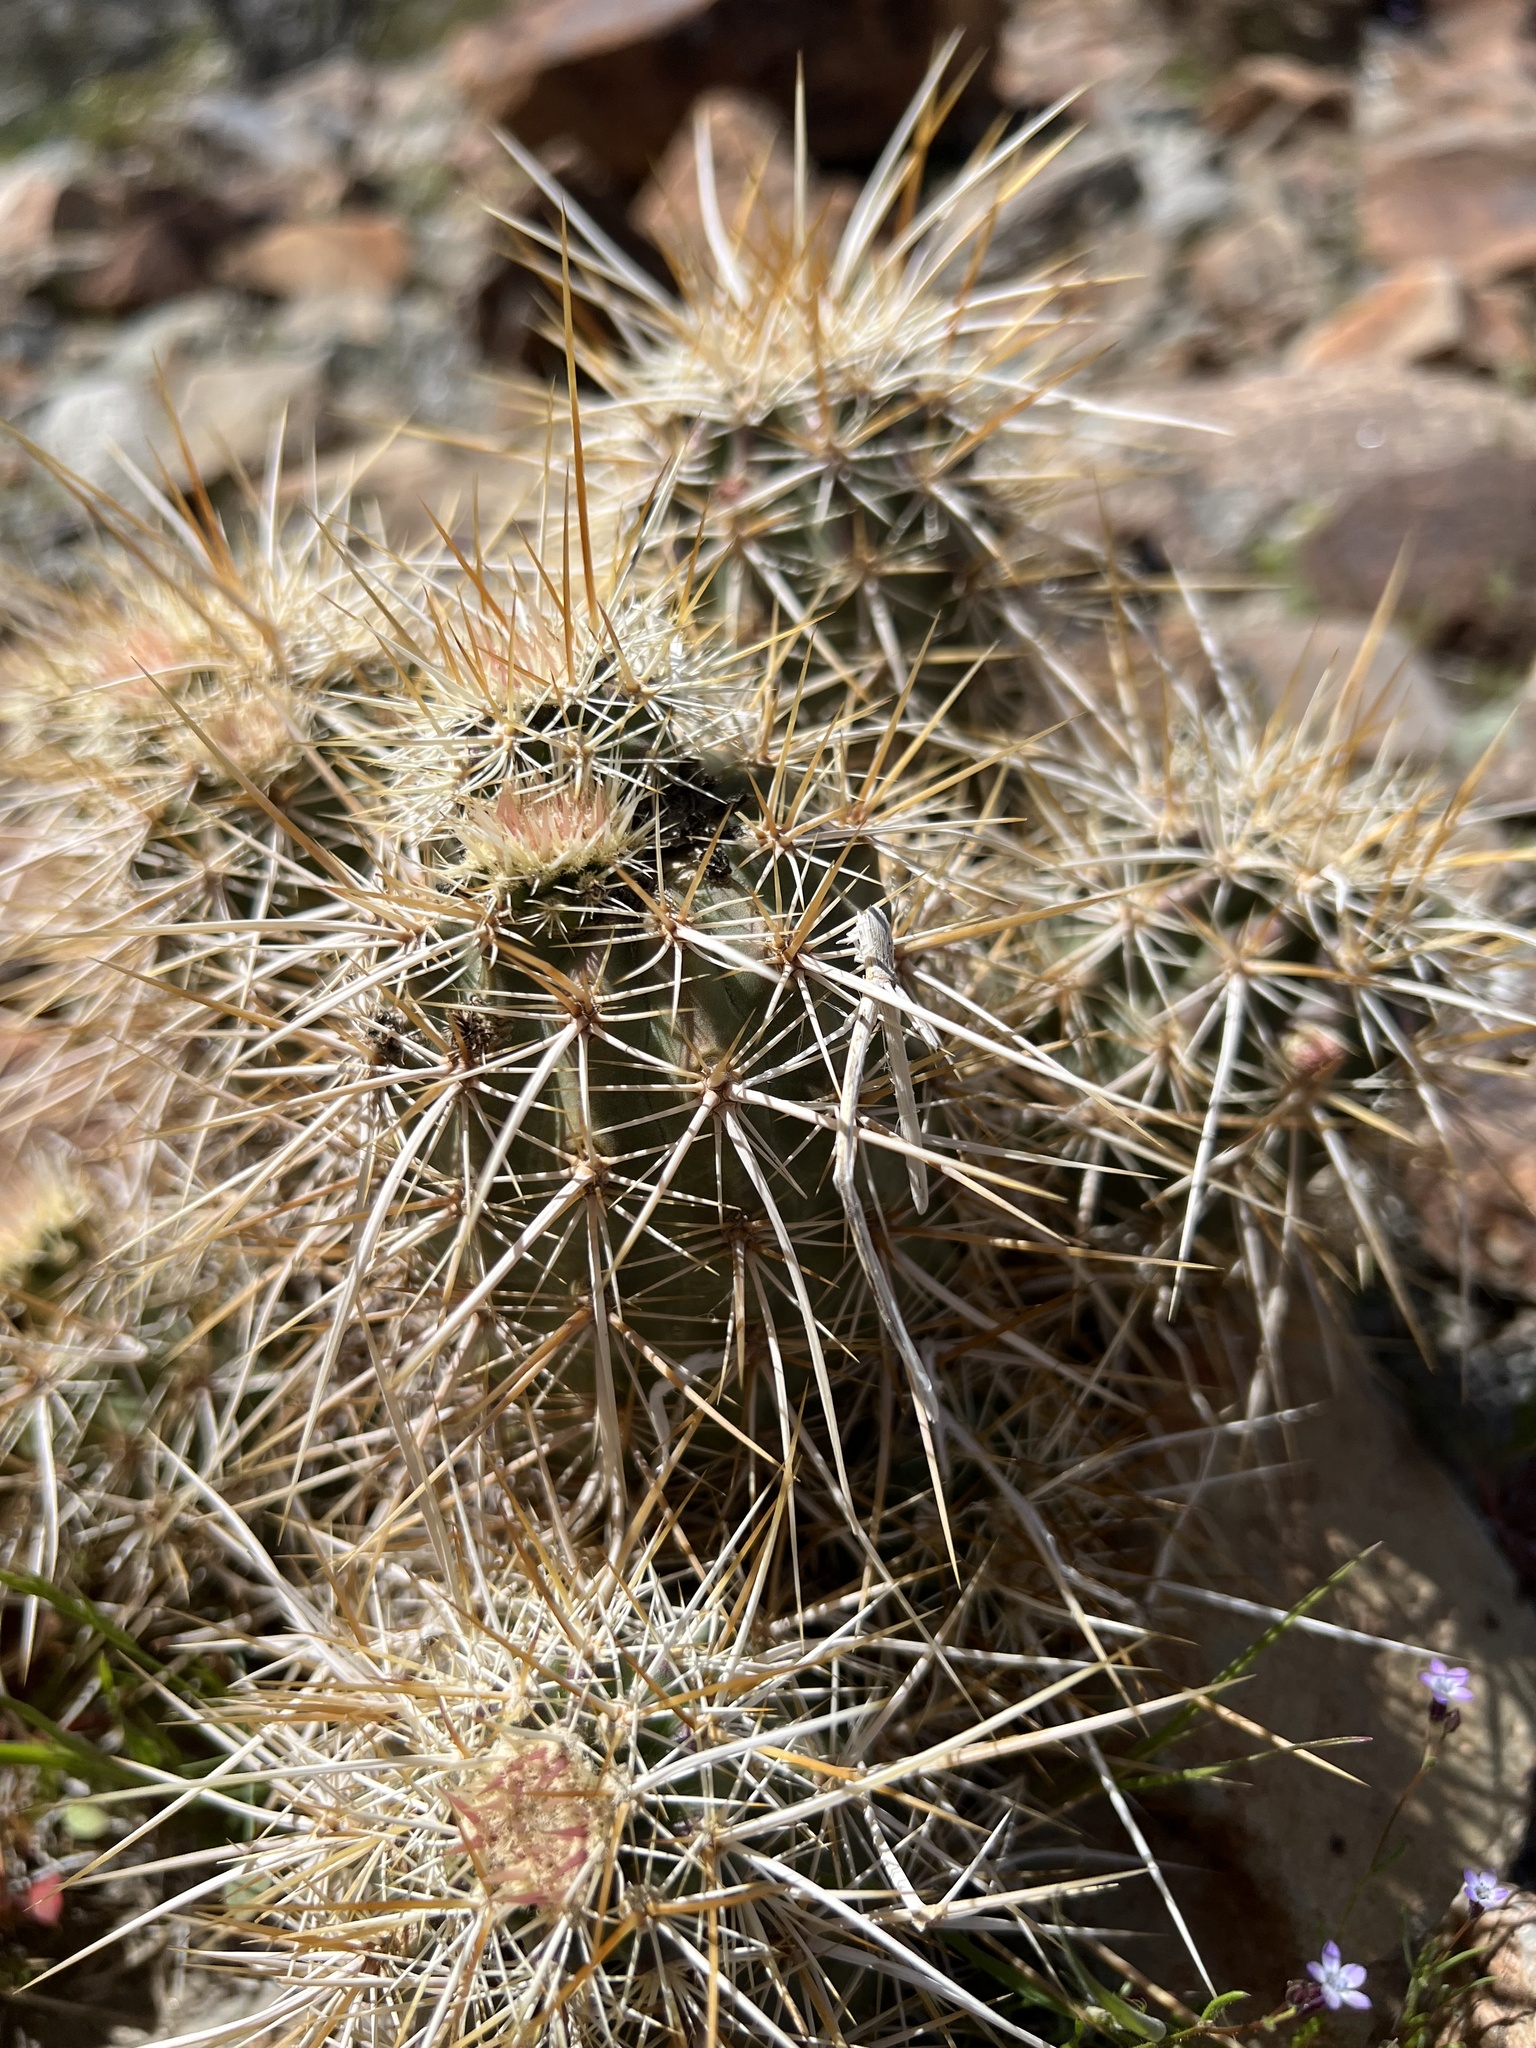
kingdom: Plantae
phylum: Tracheophyta
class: Magnoliopsida
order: Caryophyllales
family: Cactaceae
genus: Echinocereus
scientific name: Echinocereus engelmannii
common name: Engelmann's hedgehog cactus
